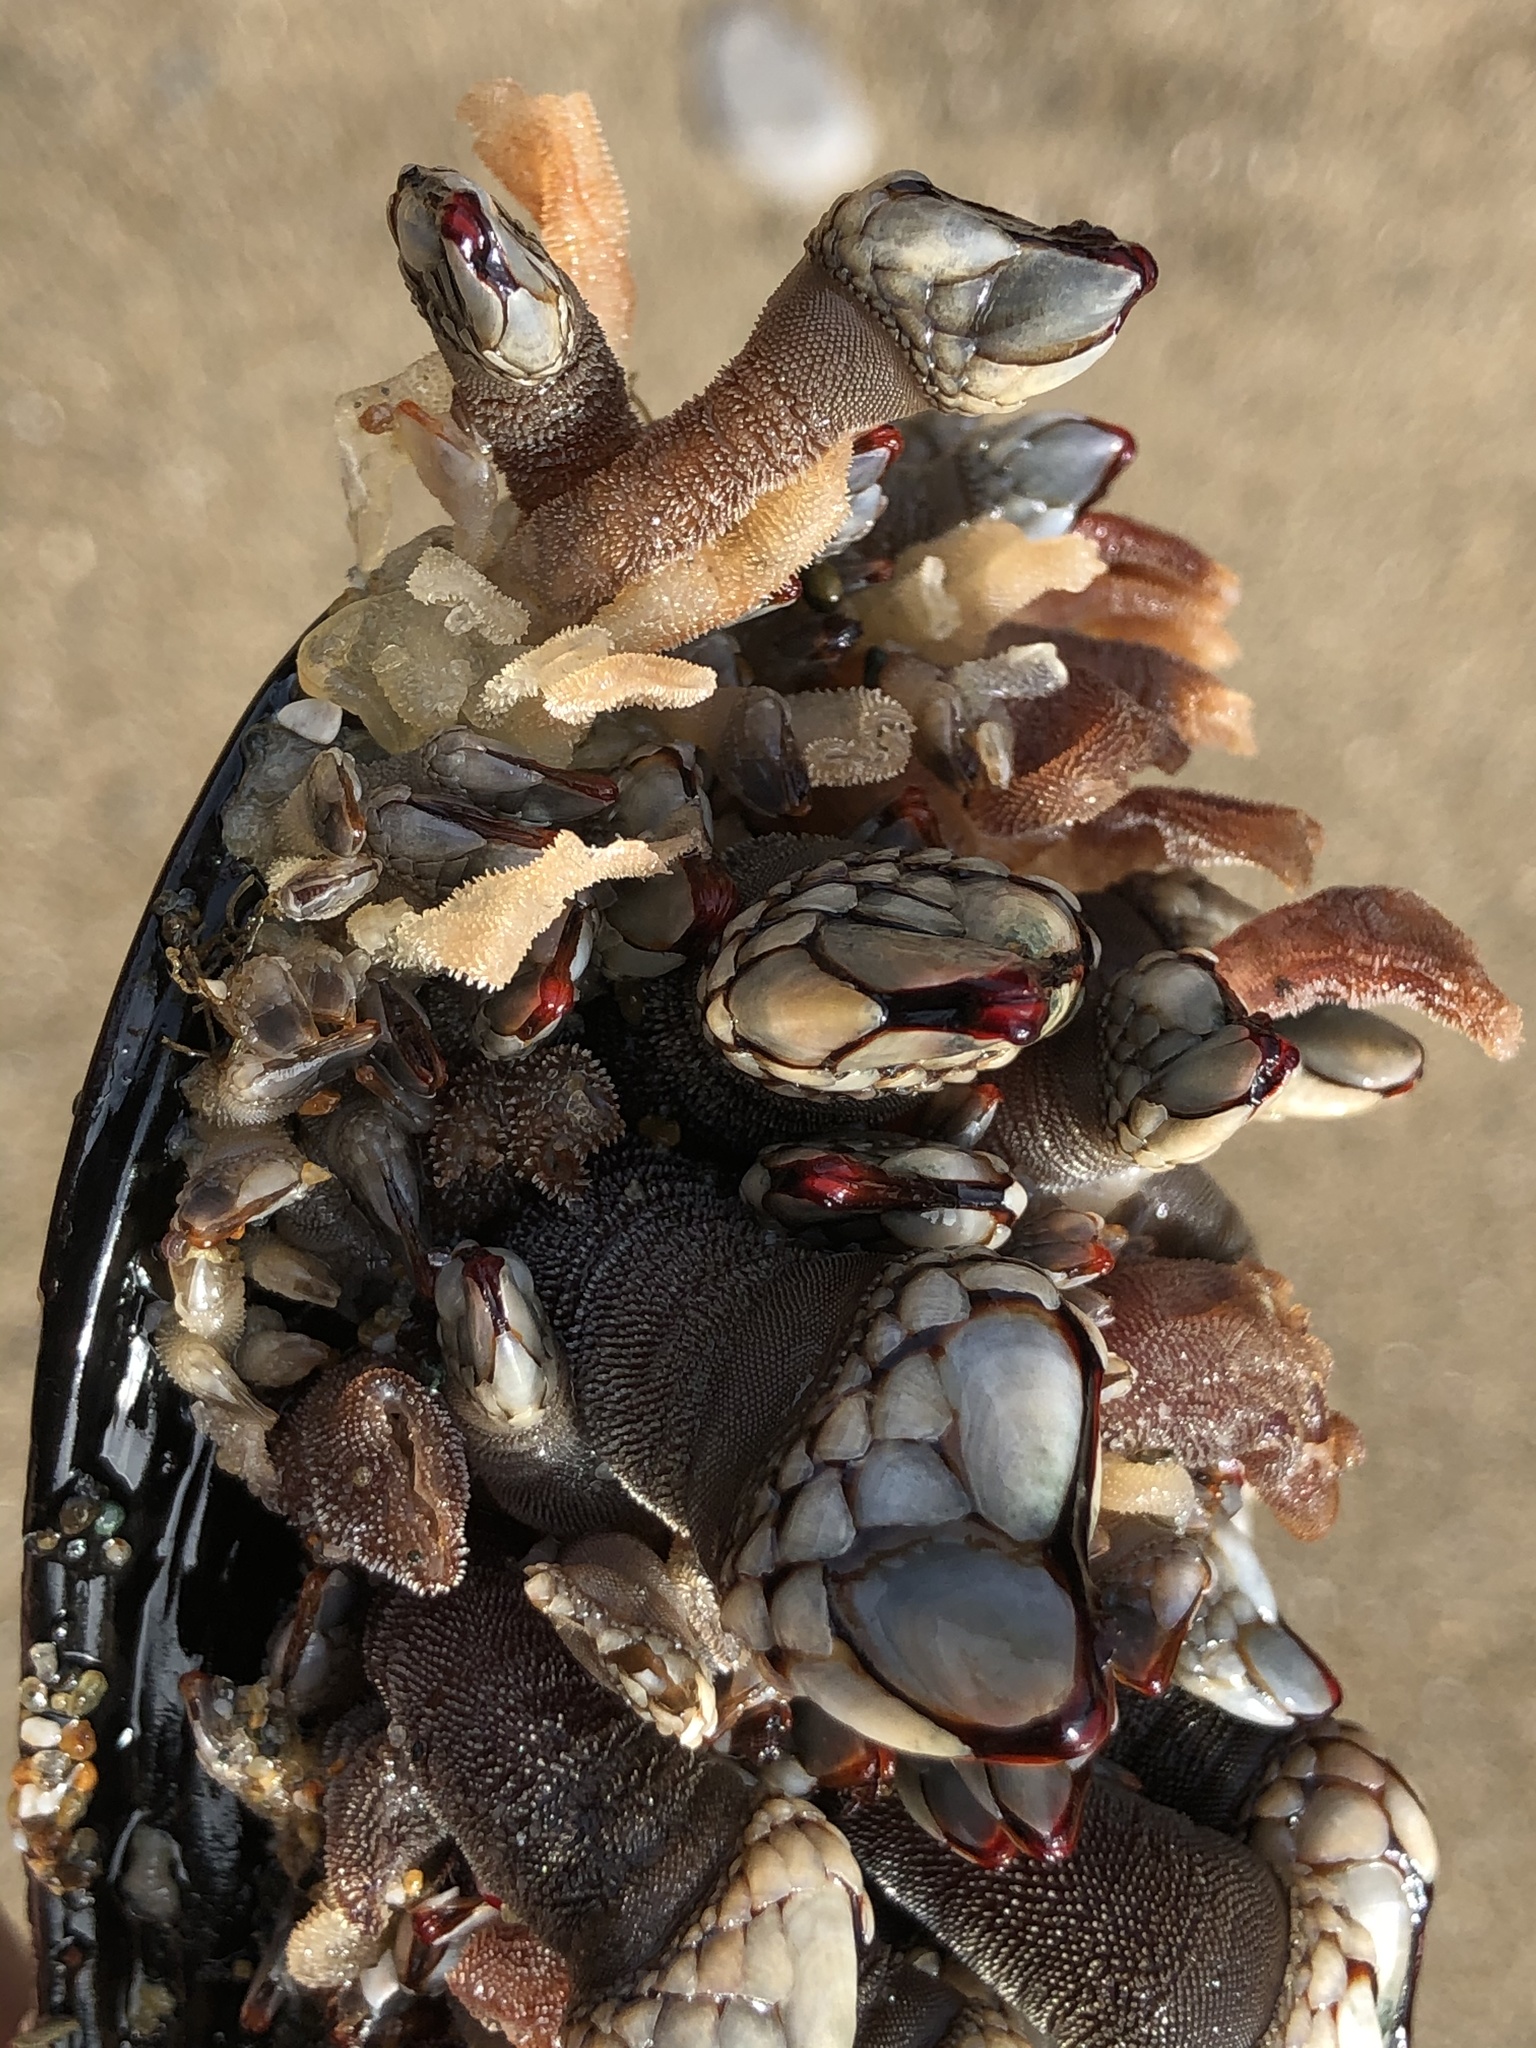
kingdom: Animalia
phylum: Arthropoda
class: Maxillopoda
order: Pedunculata
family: Pollicipedidae
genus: Pollicipes
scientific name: Pollicipes polymerus
